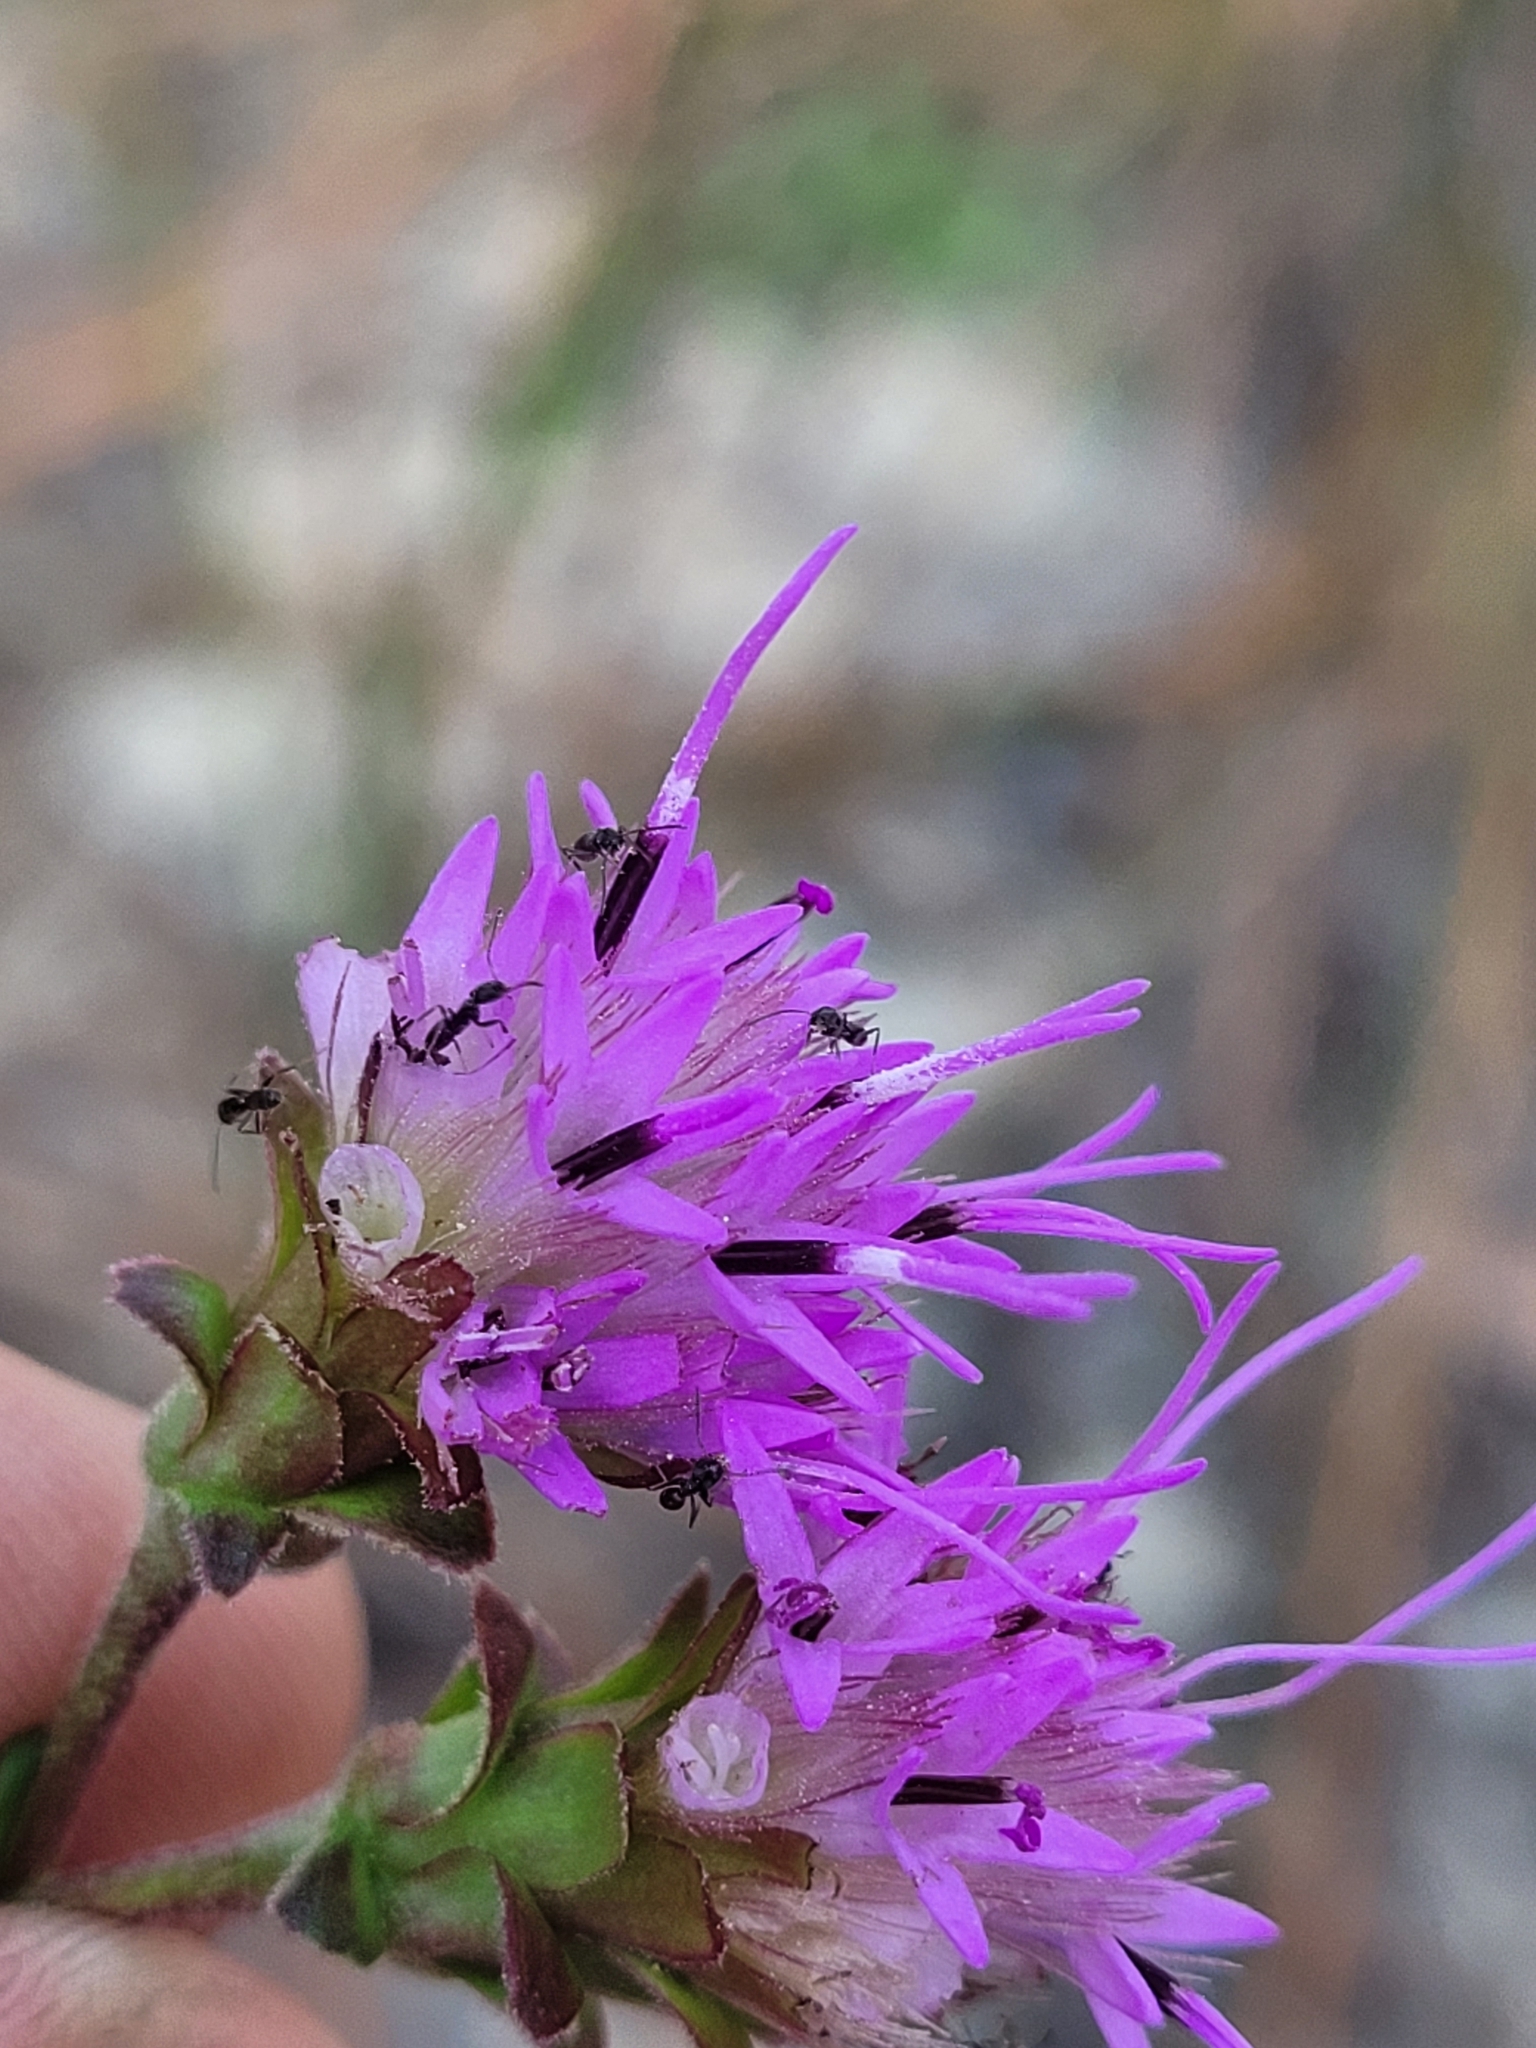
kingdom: Plantae
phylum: Tracheophyta
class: Magnoliopsida
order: Asterales
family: Asteraceae
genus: Carphephorus
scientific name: Carphephorus bellidifolius
